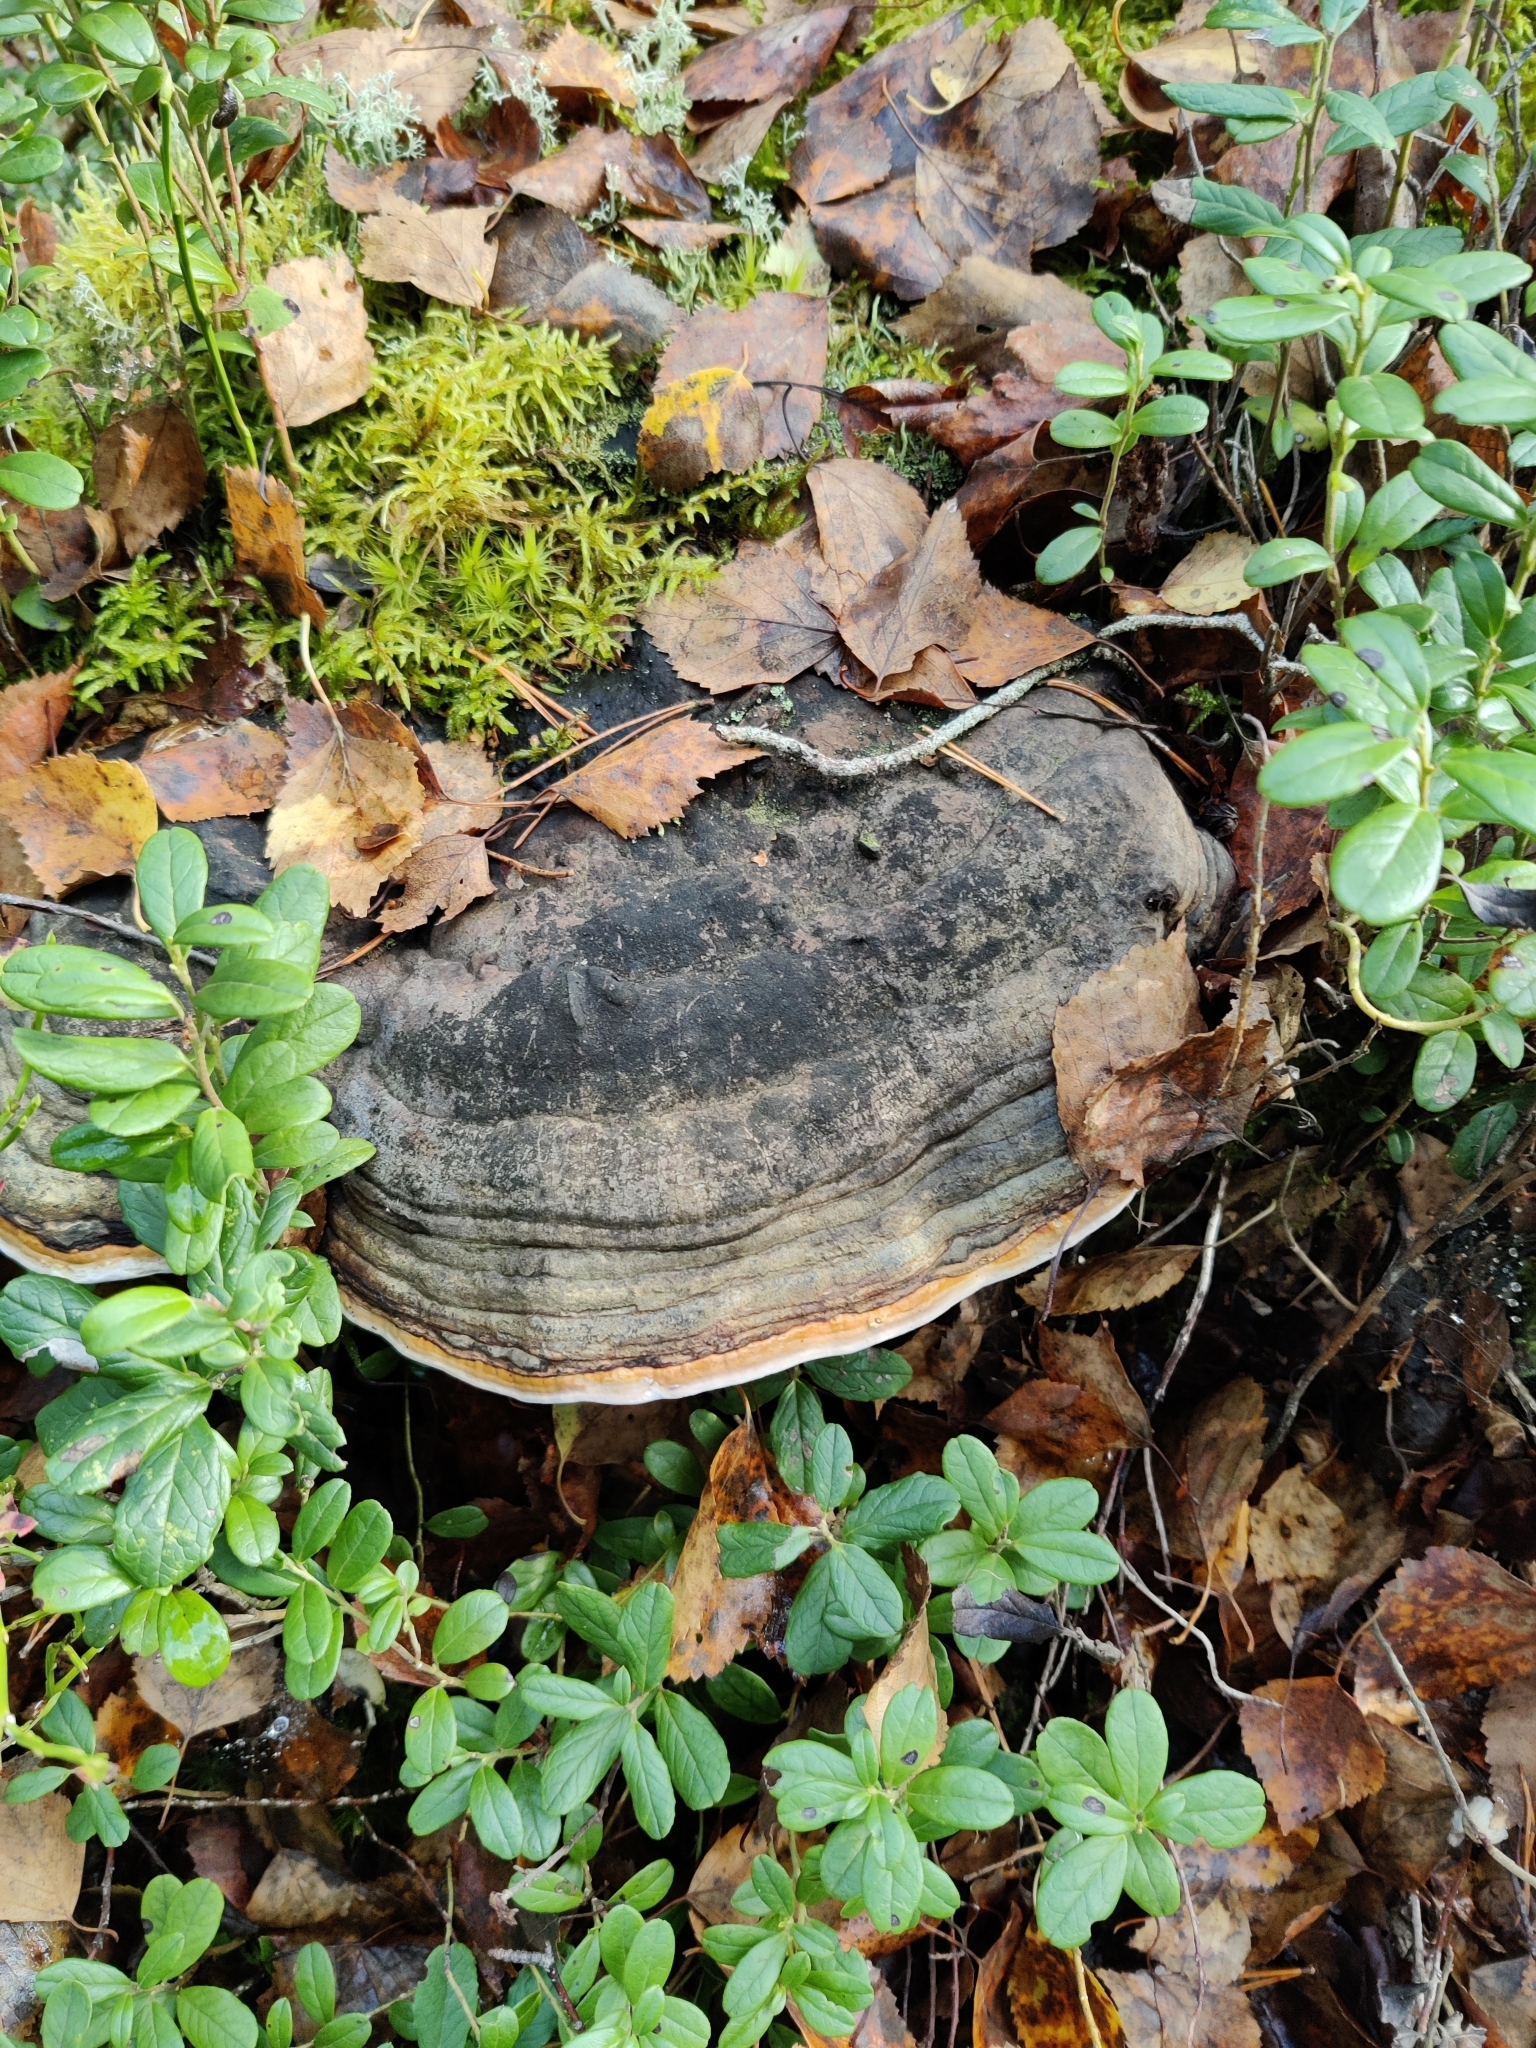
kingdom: Fungi
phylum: Basidiomycota
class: Agaricomycetes
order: Polyporales
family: Fomitopsidaceae
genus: Fomitopsis
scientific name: Fomitopsis pinicola
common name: Red-belted bracket
